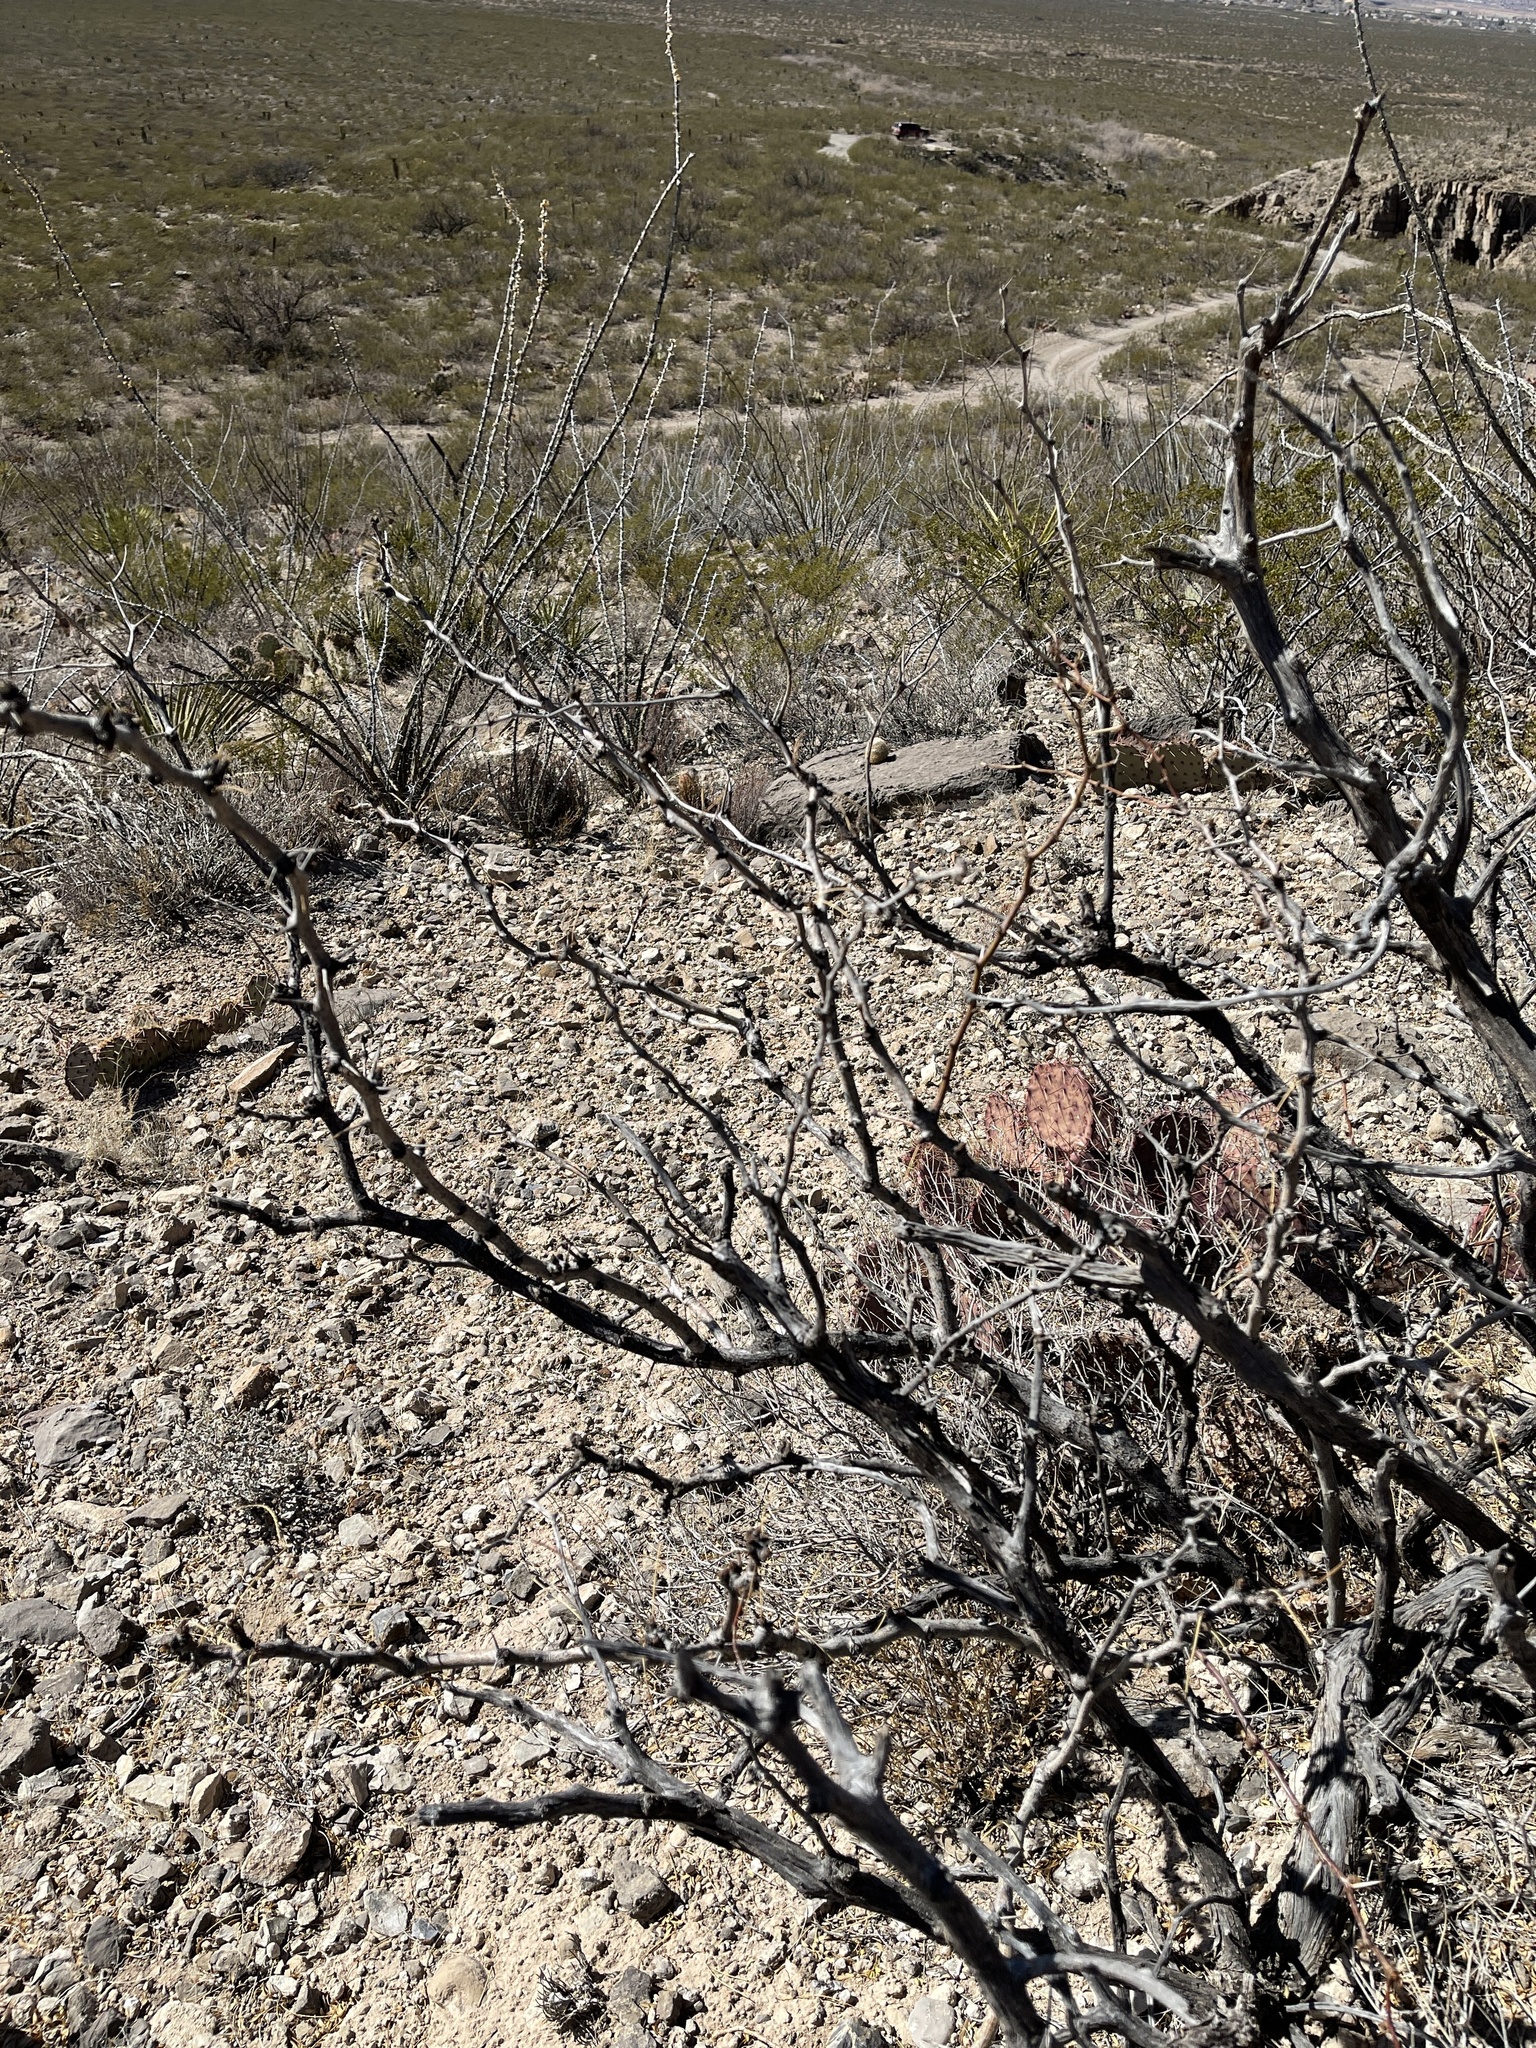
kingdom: Plantae
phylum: Tracheophyta
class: Magnoliopsida
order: Fabales
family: Fabaceae
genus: Prosopis
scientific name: Prosopis glandulosa
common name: Honey mesquite
